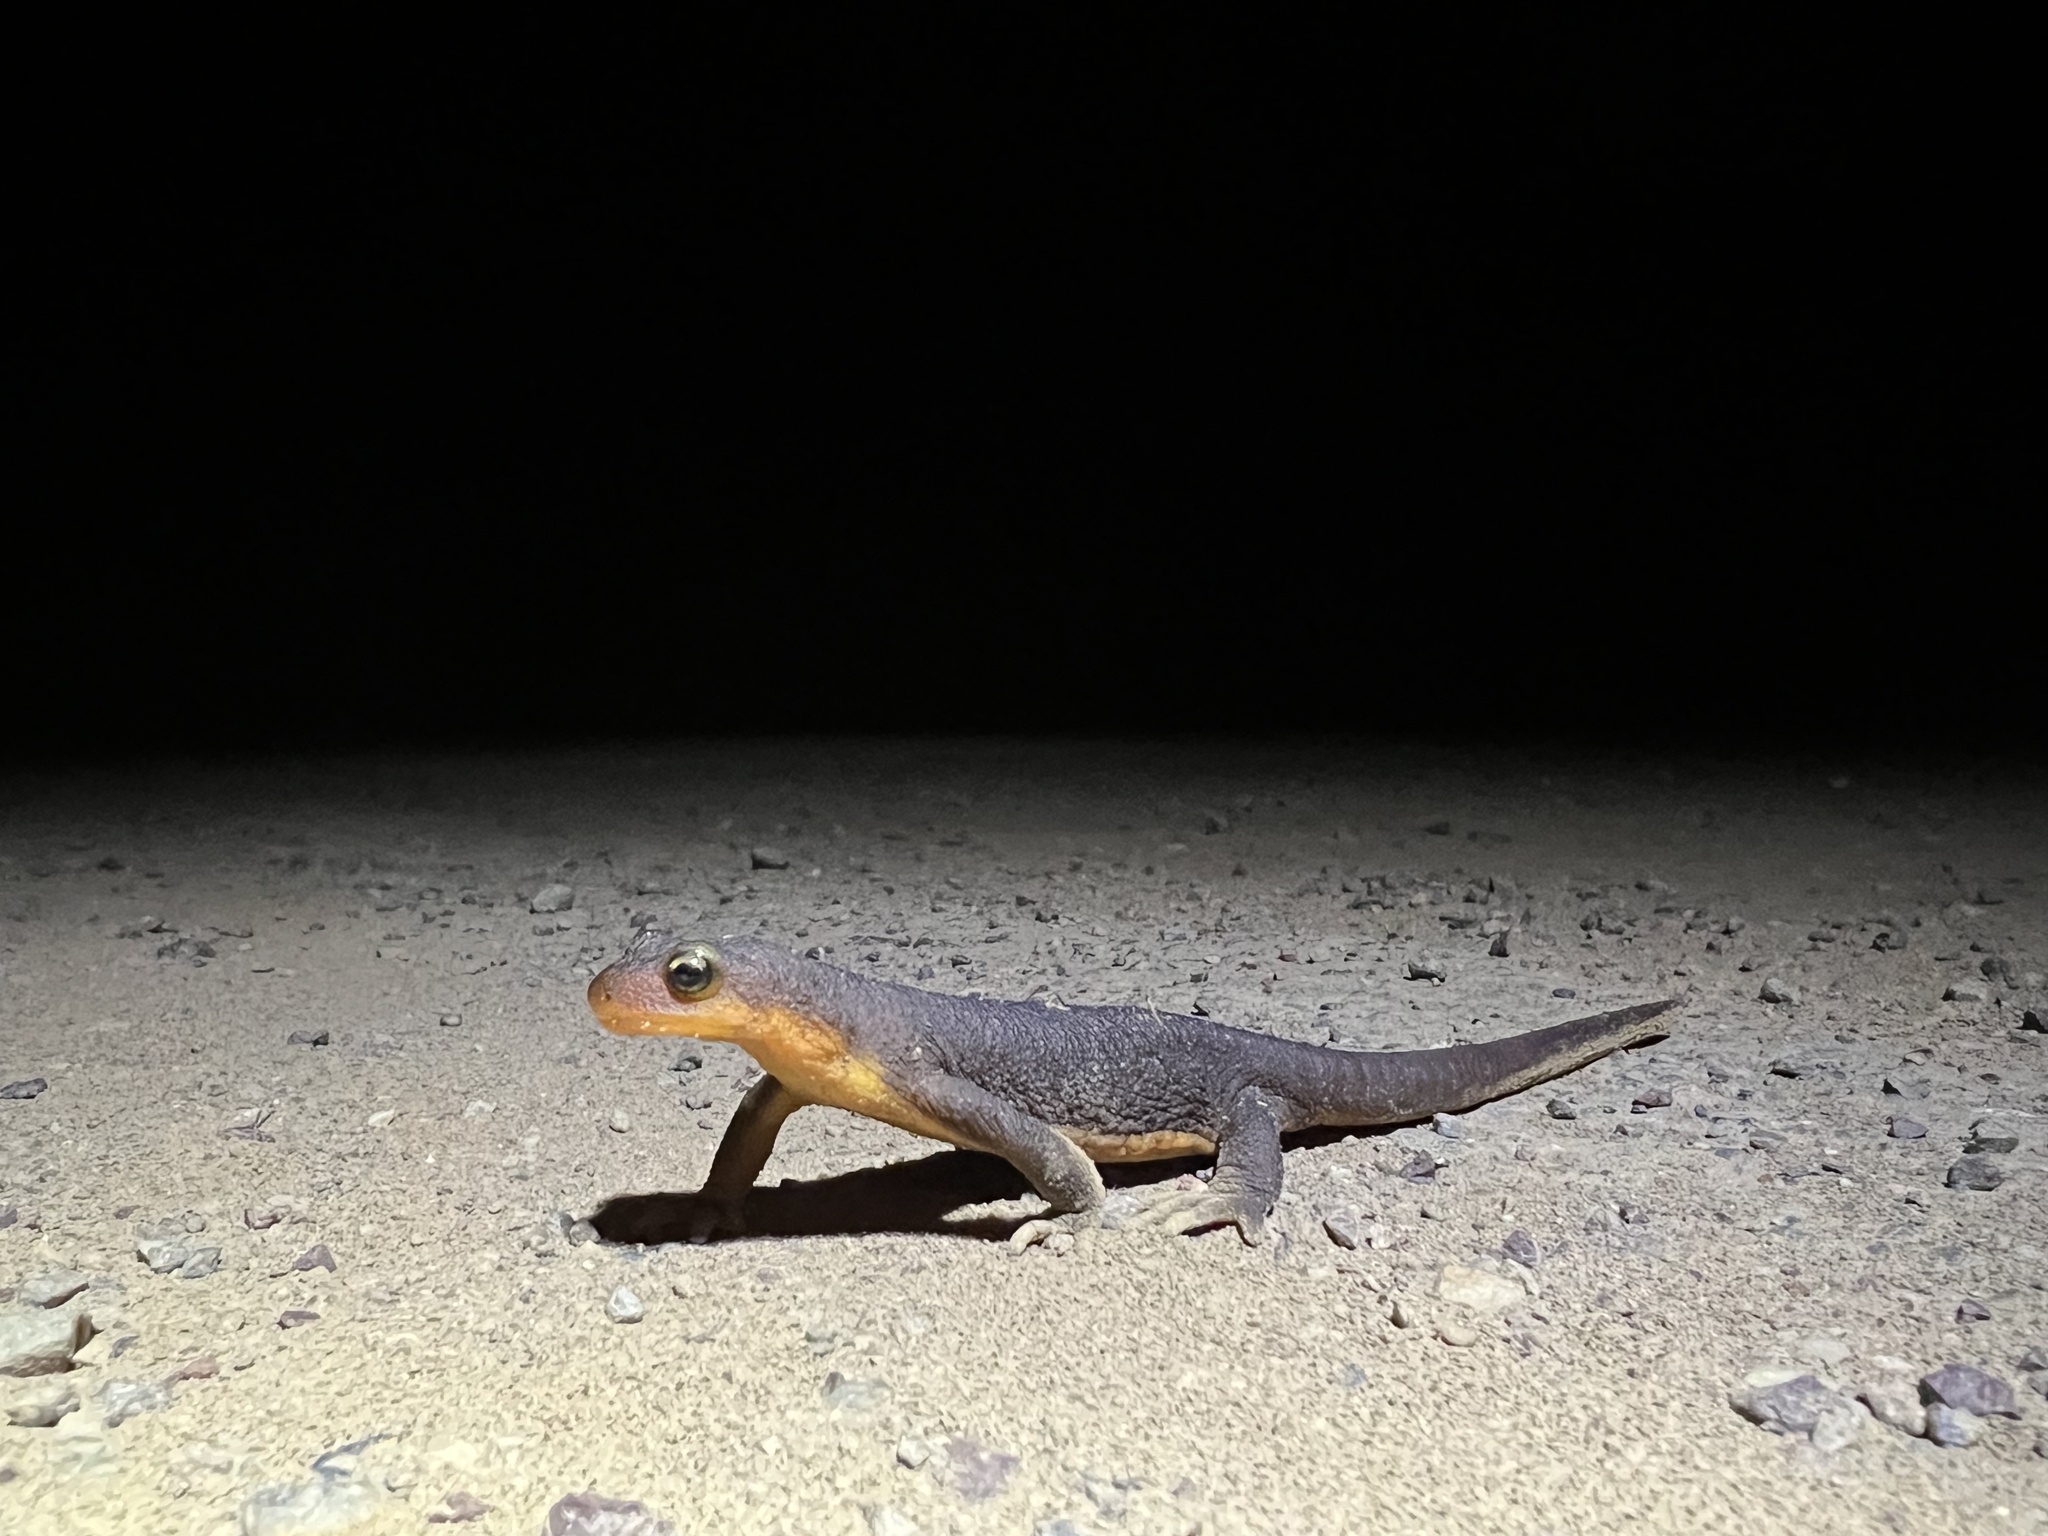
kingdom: Animalia
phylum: Chordata
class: Amphibia
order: Caudata
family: Salamandridae
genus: Taricha
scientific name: Taricha torosa
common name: California newt
